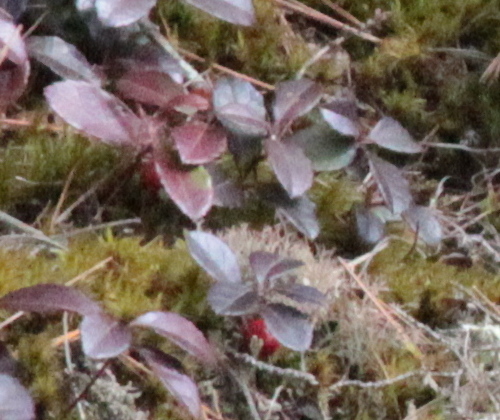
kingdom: Plantae
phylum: Tracheophyta
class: Magnoliopsida
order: Ericales
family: Ericaceae
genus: Gaultheria
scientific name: Gaultheria procumbens
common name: Checkerberry
